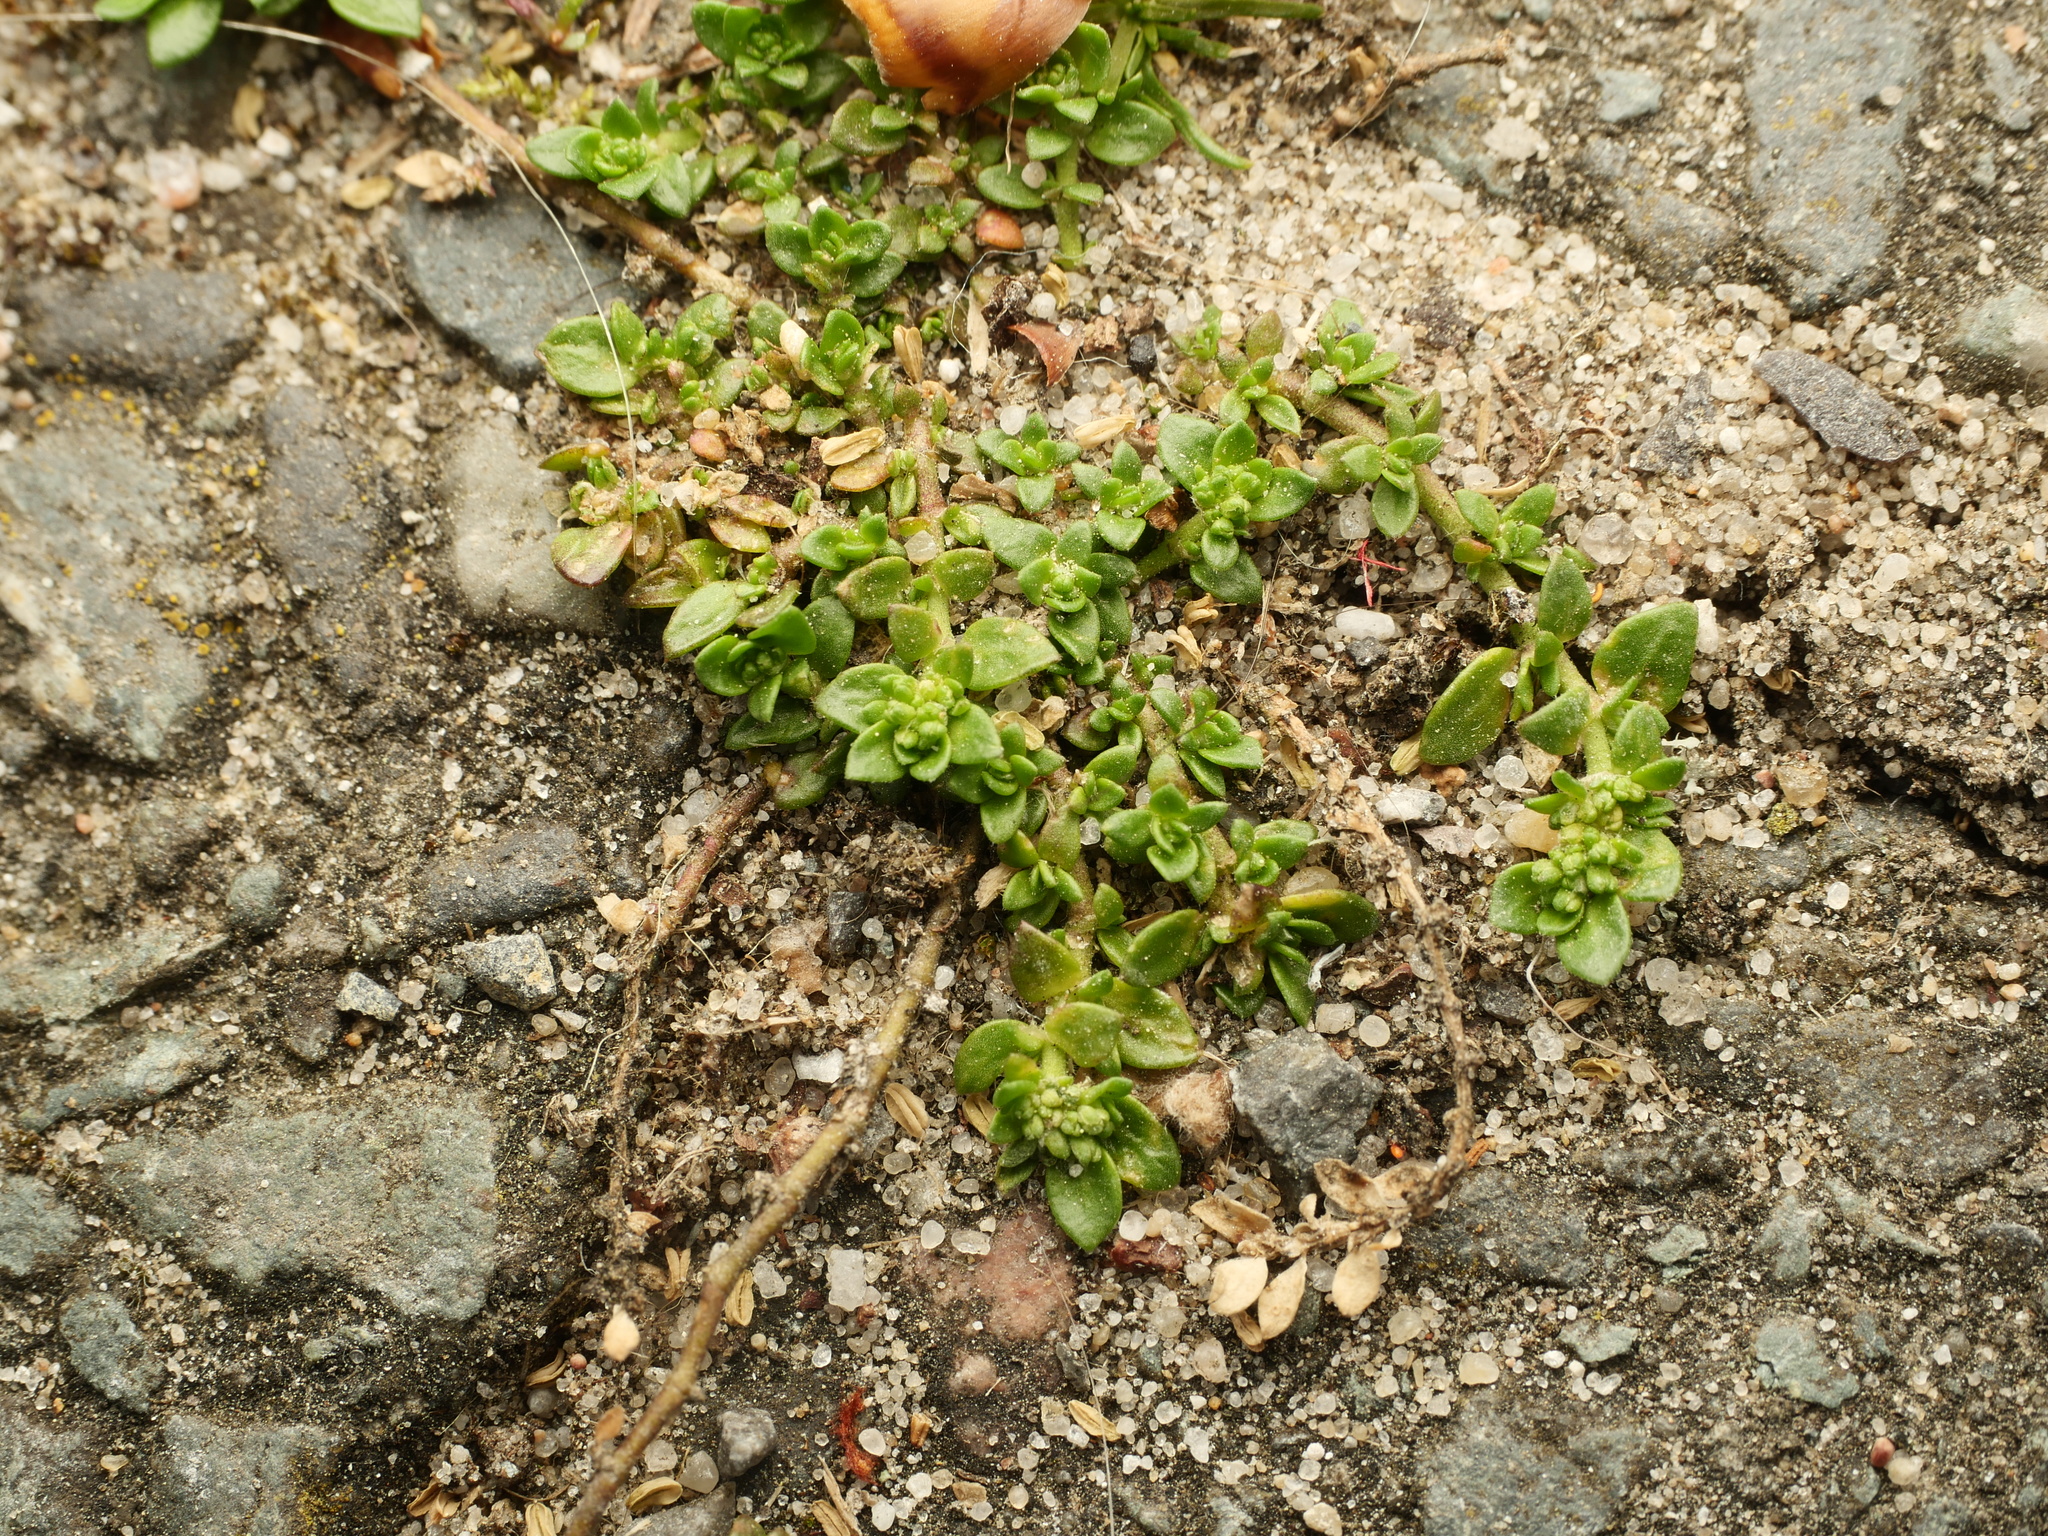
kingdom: Plantae
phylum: Tracheophyta
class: Magnoliopsida
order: Caryophyllales
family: Caryophyllaceae
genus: Herniaria
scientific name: Herniaria glabra
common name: Smooth rupturewort
